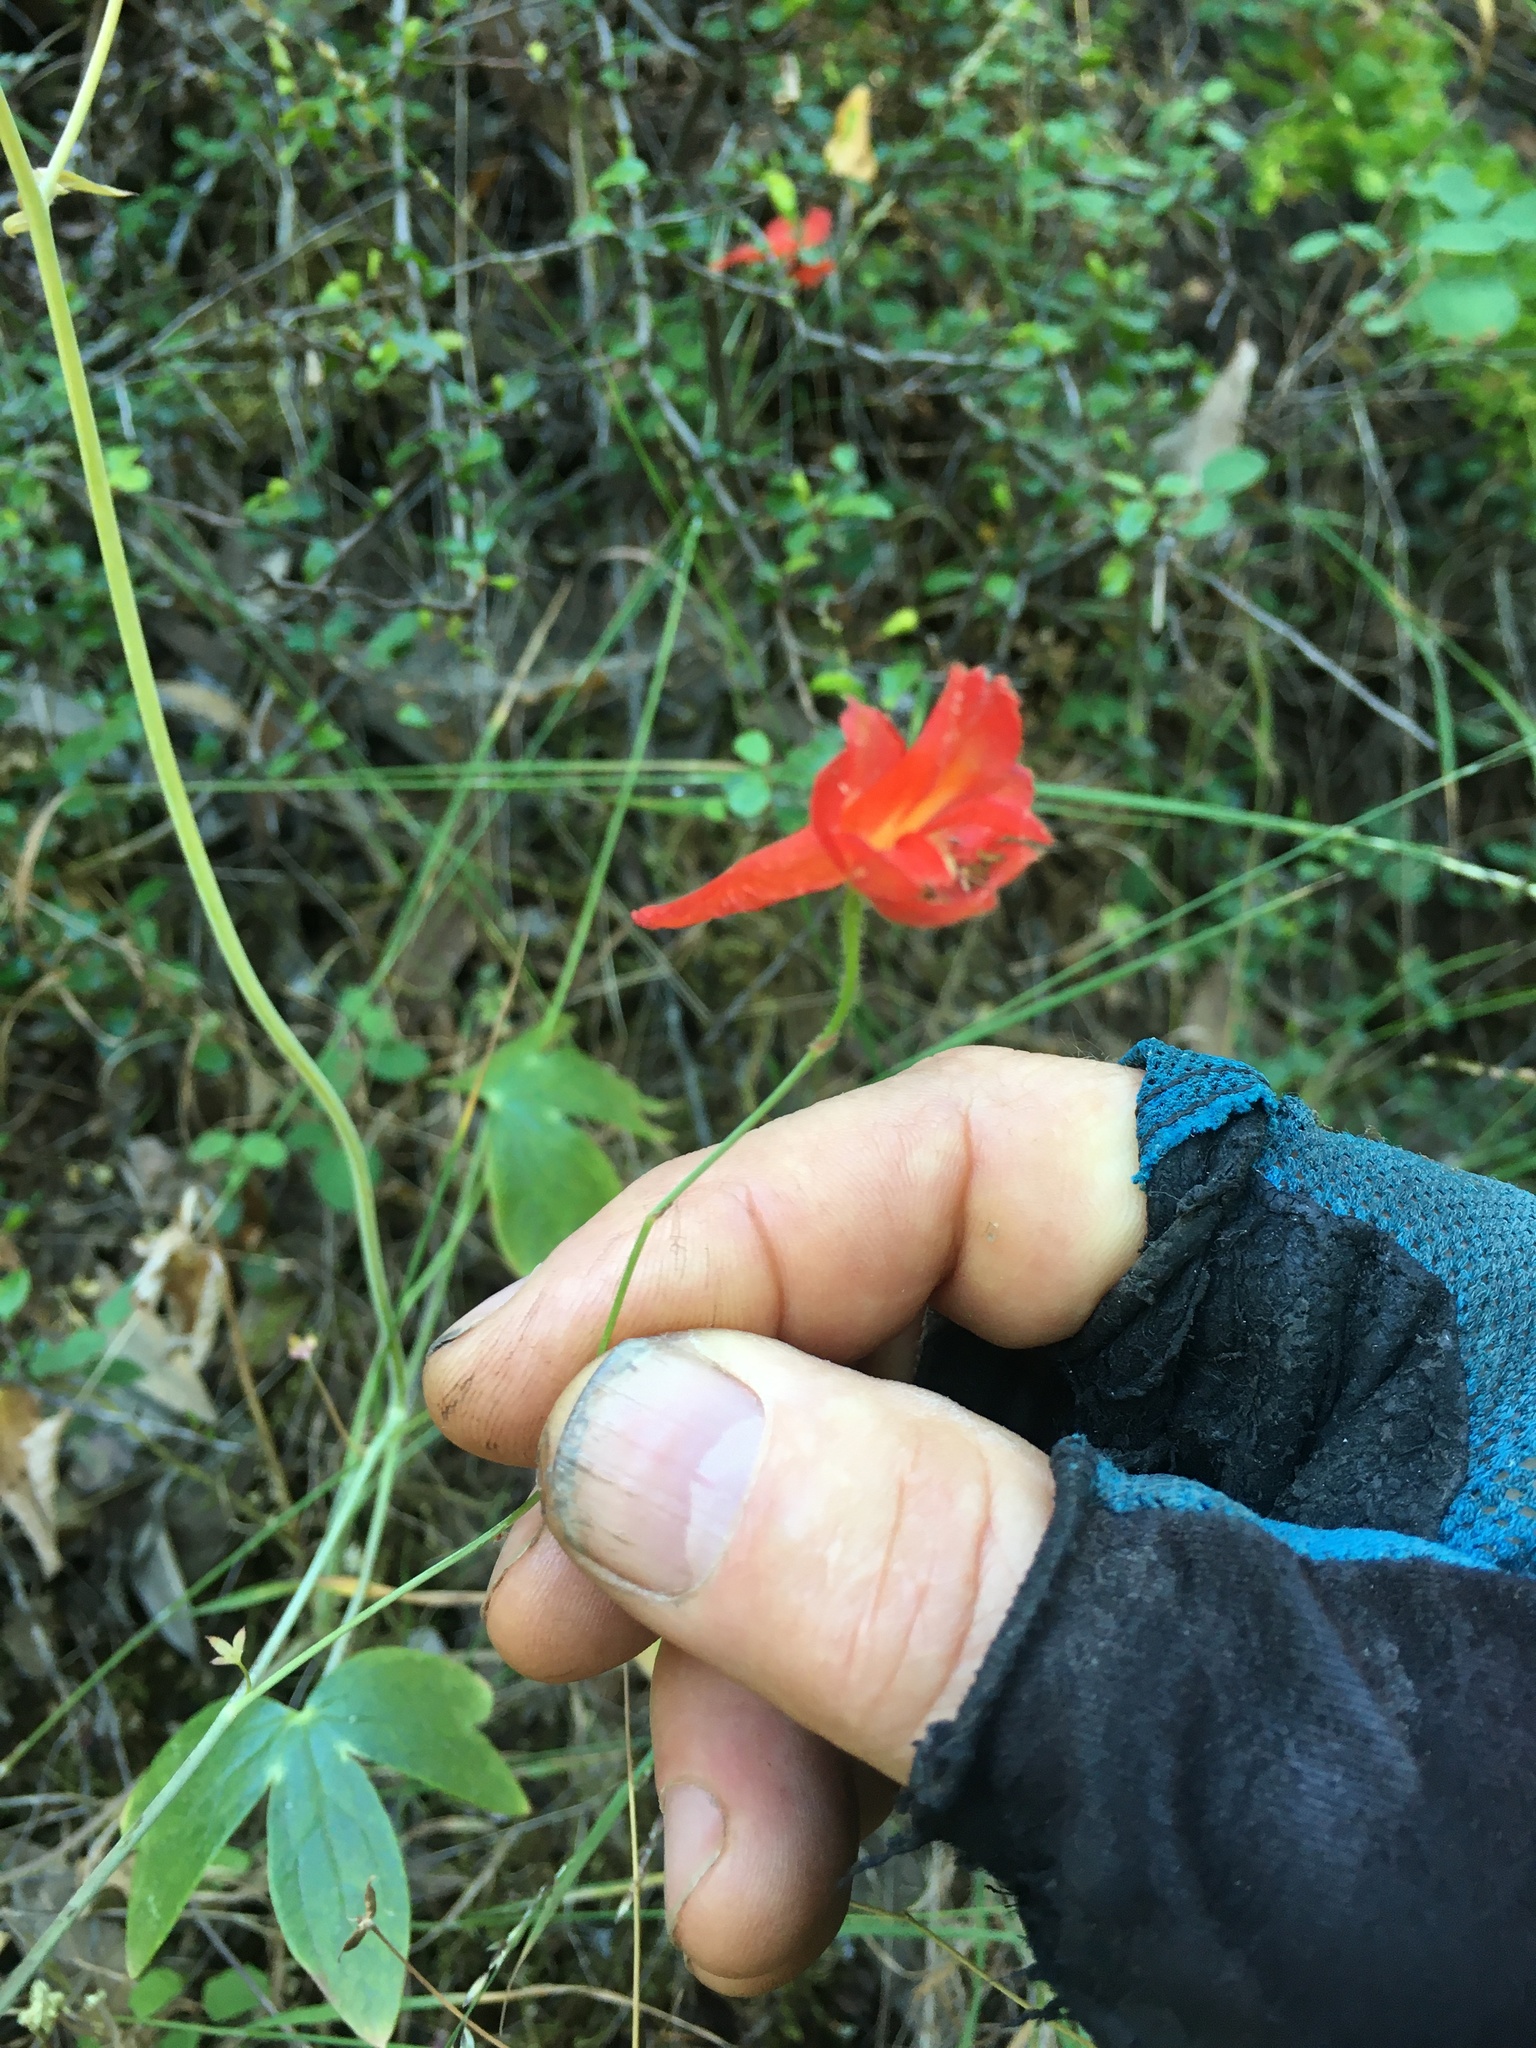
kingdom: Plantae
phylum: Tracheophyta
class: Magnoliopsida
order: Ranunculales
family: Ranunculaceae
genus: Delphinium
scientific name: Delphinium nudicaule
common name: Red larkspur
